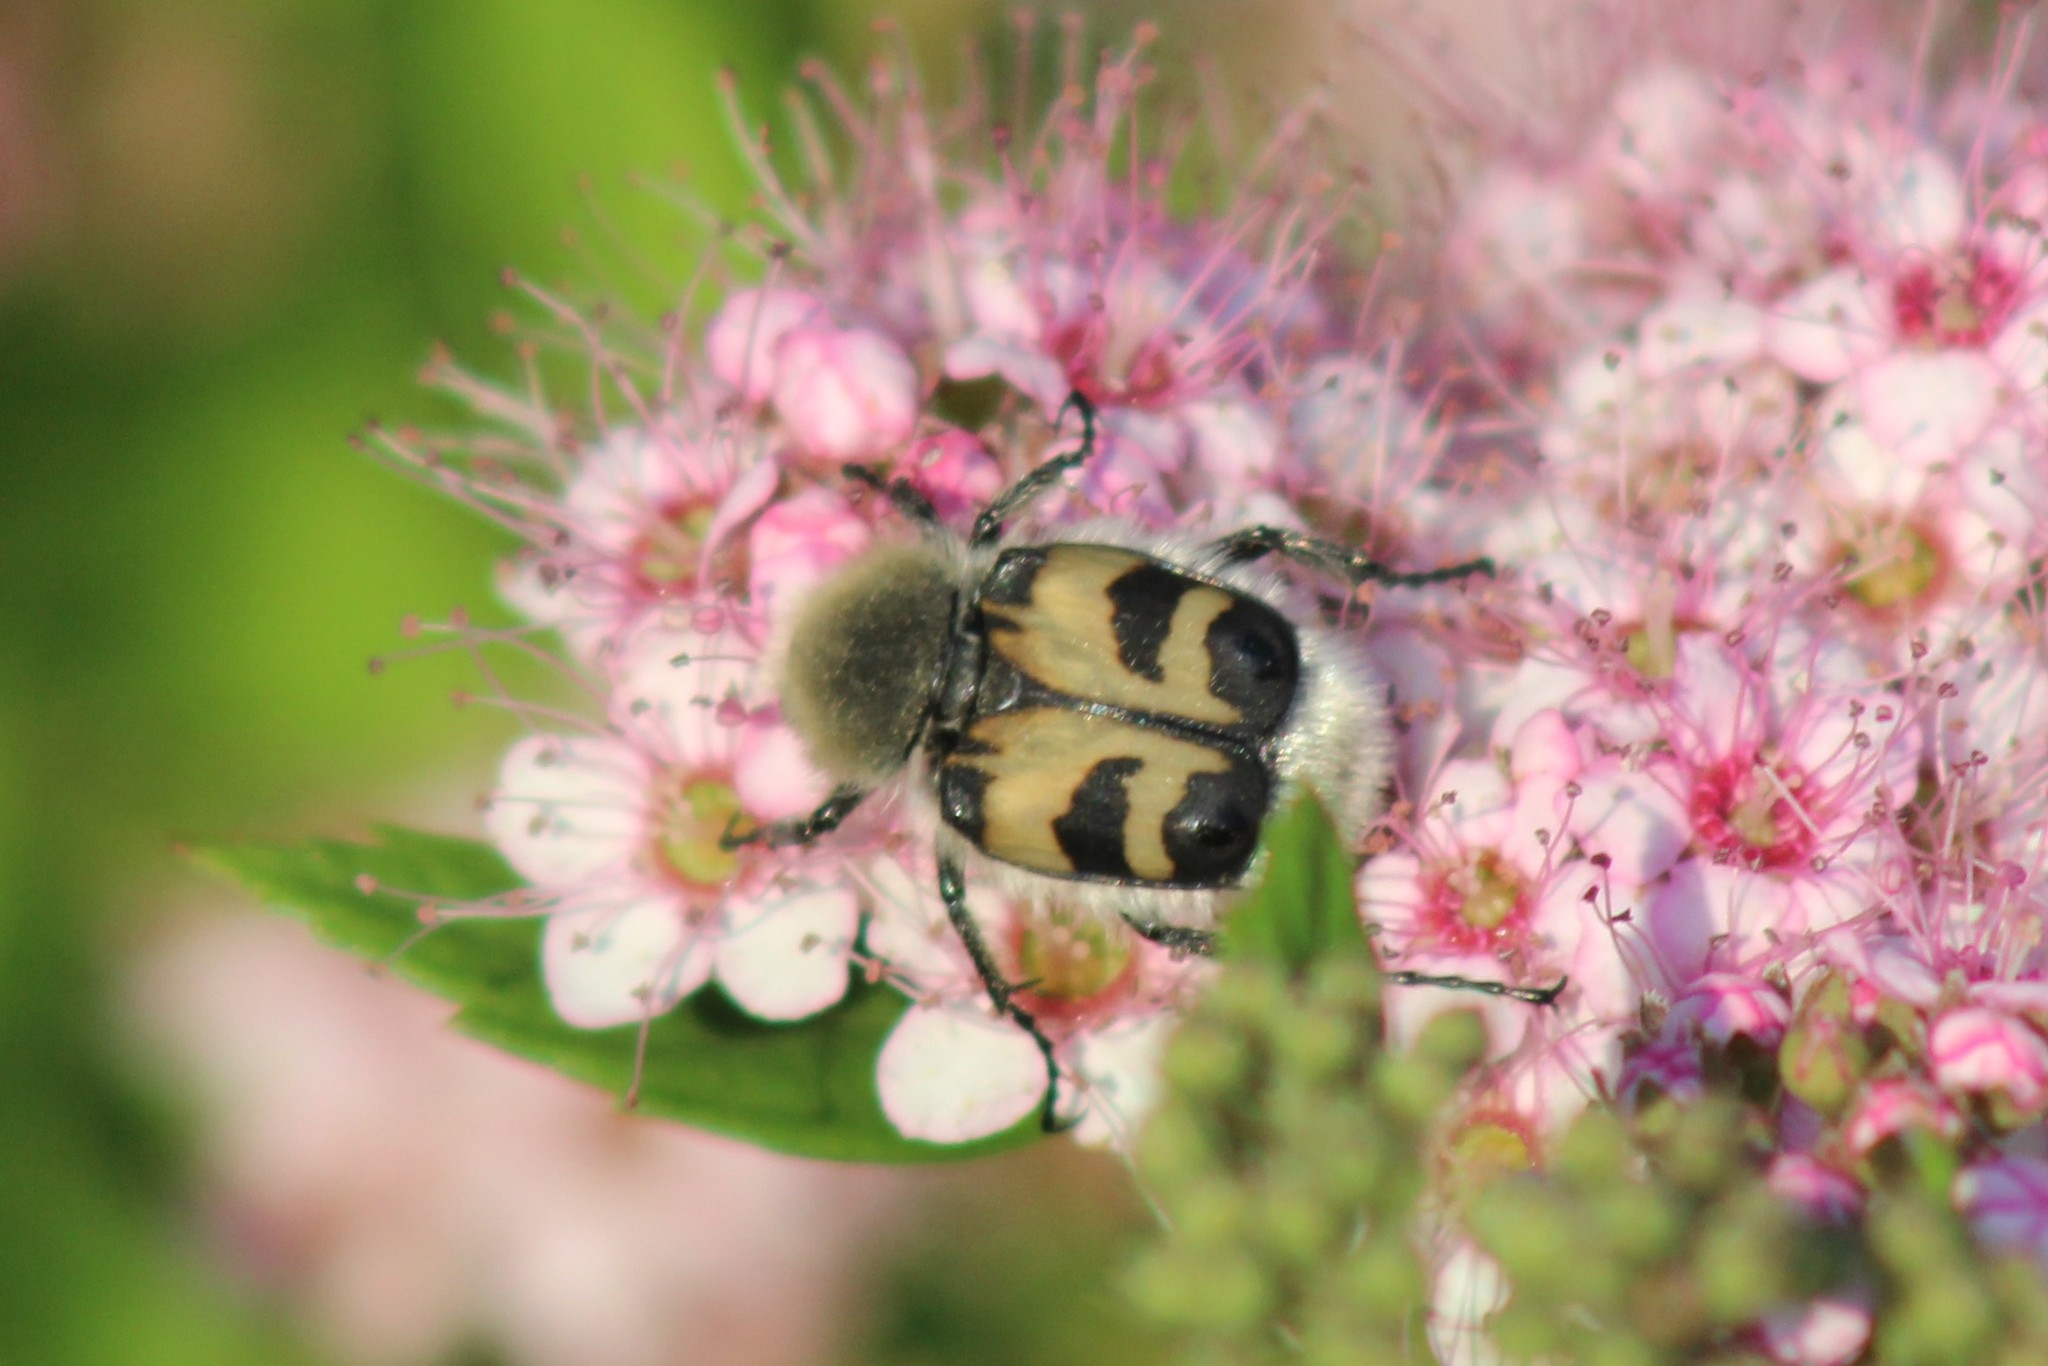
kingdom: Animalia
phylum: Arthropoda
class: Insecta
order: Coleoptera
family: Scarabaeidae
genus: Trichius
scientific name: Trichius fasciatus
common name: Bee beetle
